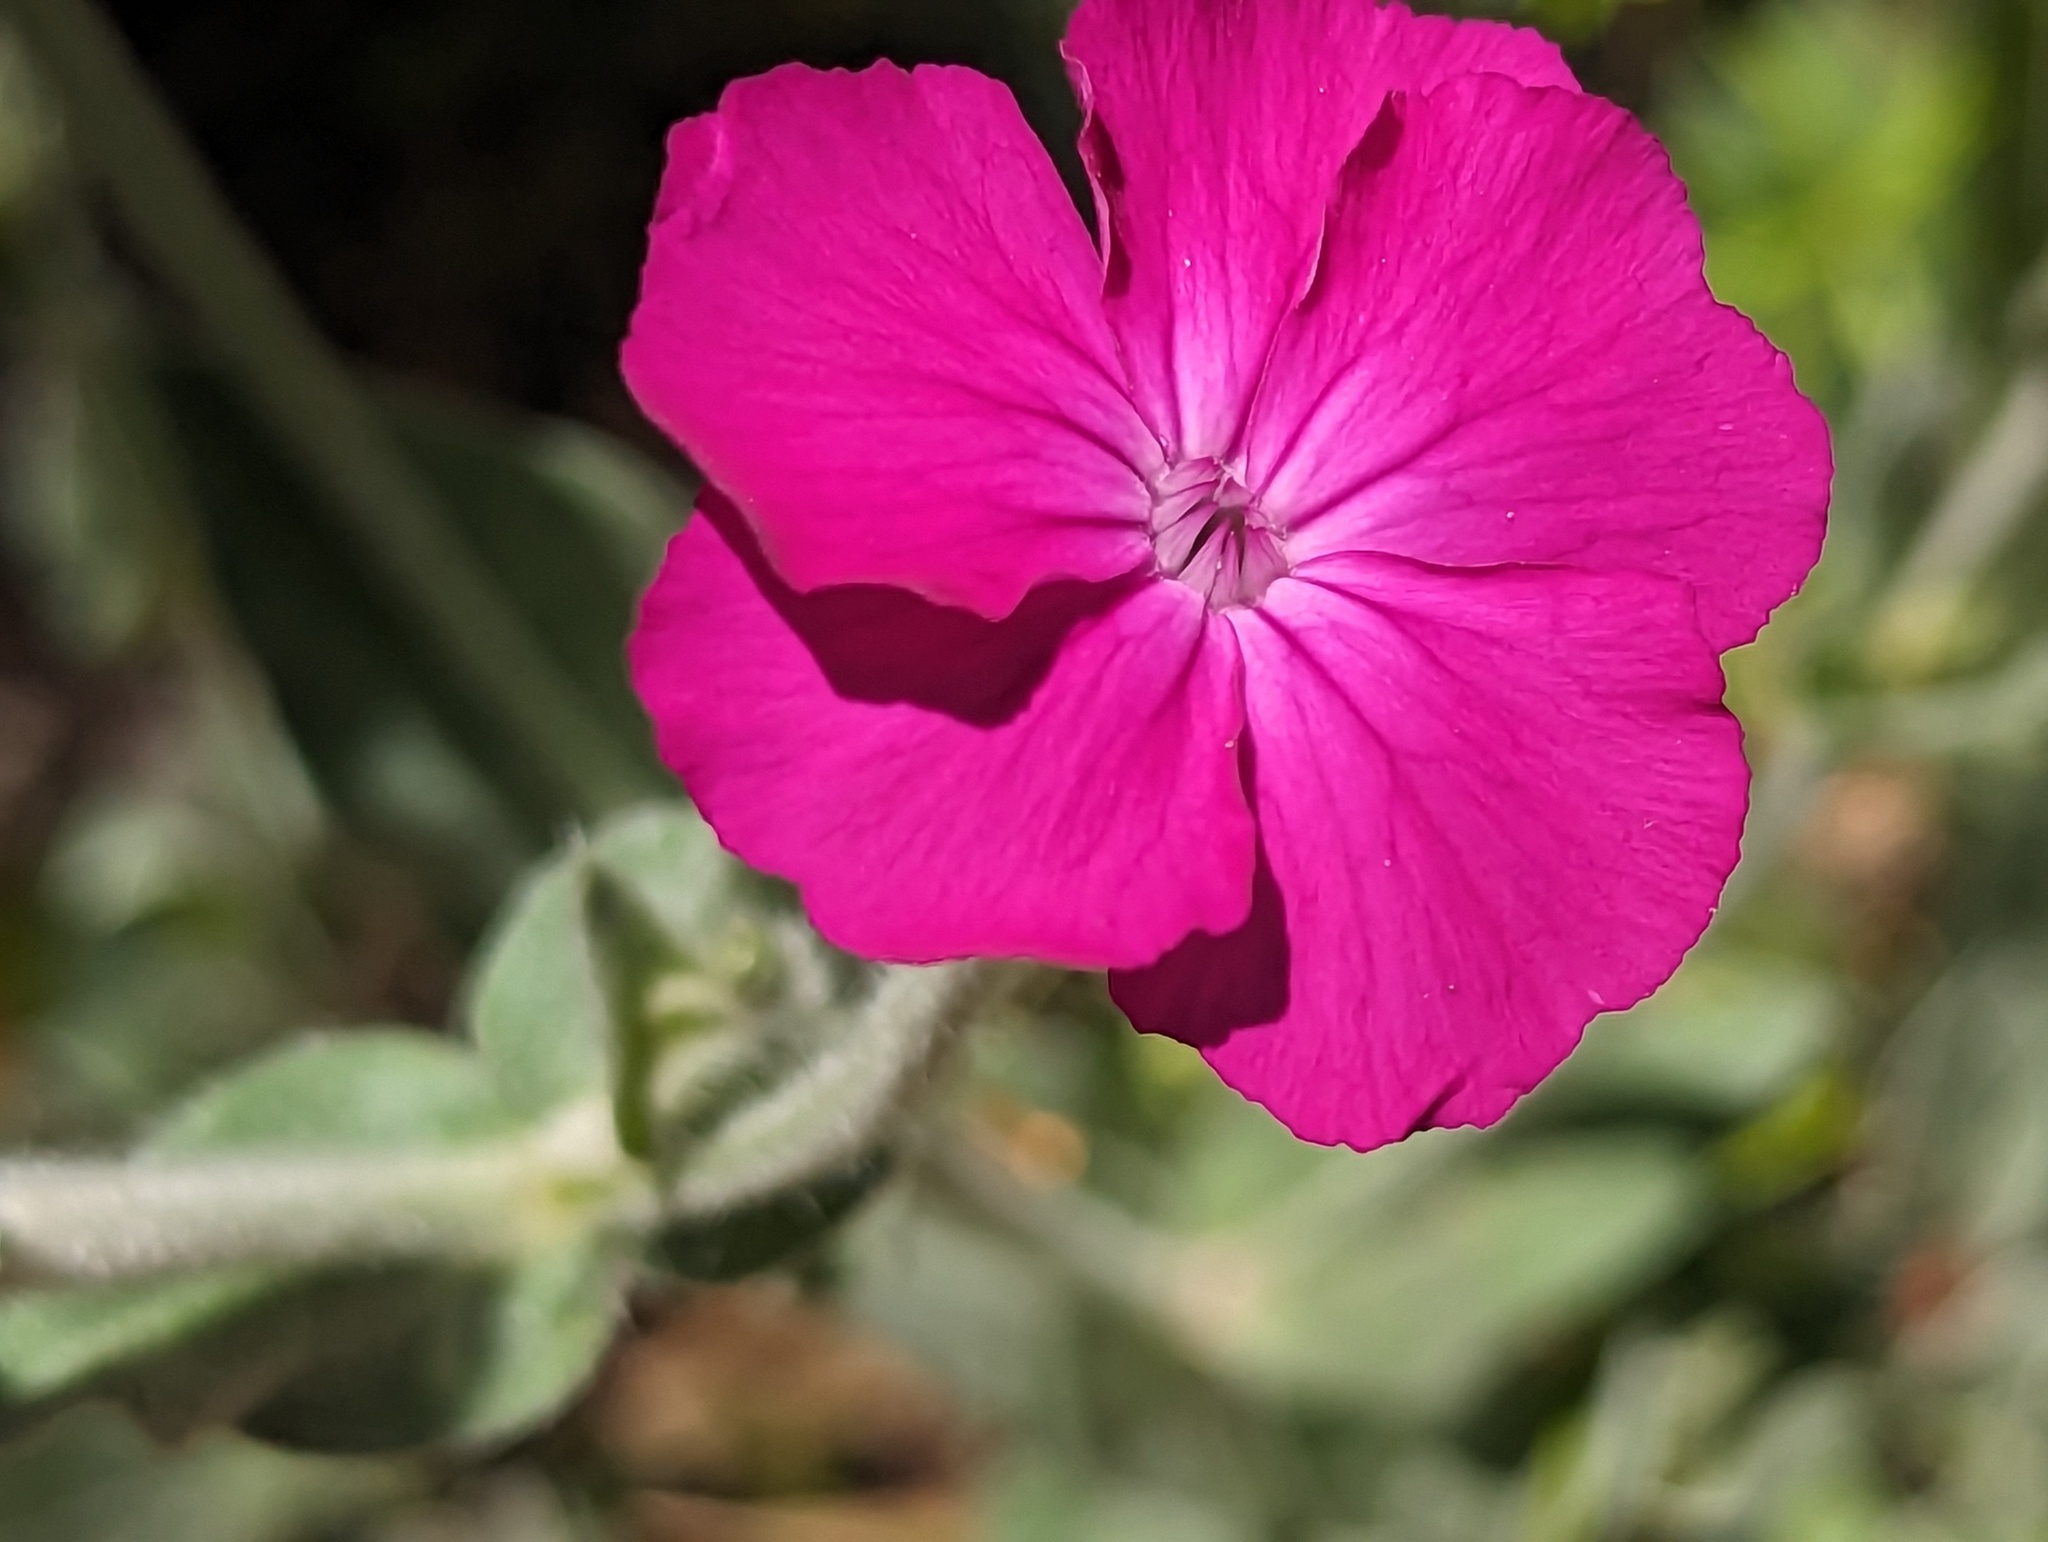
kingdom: Plantae
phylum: Tracheophyta
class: Magnoliopsida
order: Caryophyllales
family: Caryophyllaceae
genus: Silene
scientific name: Silene coronaria
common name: Rose campion
